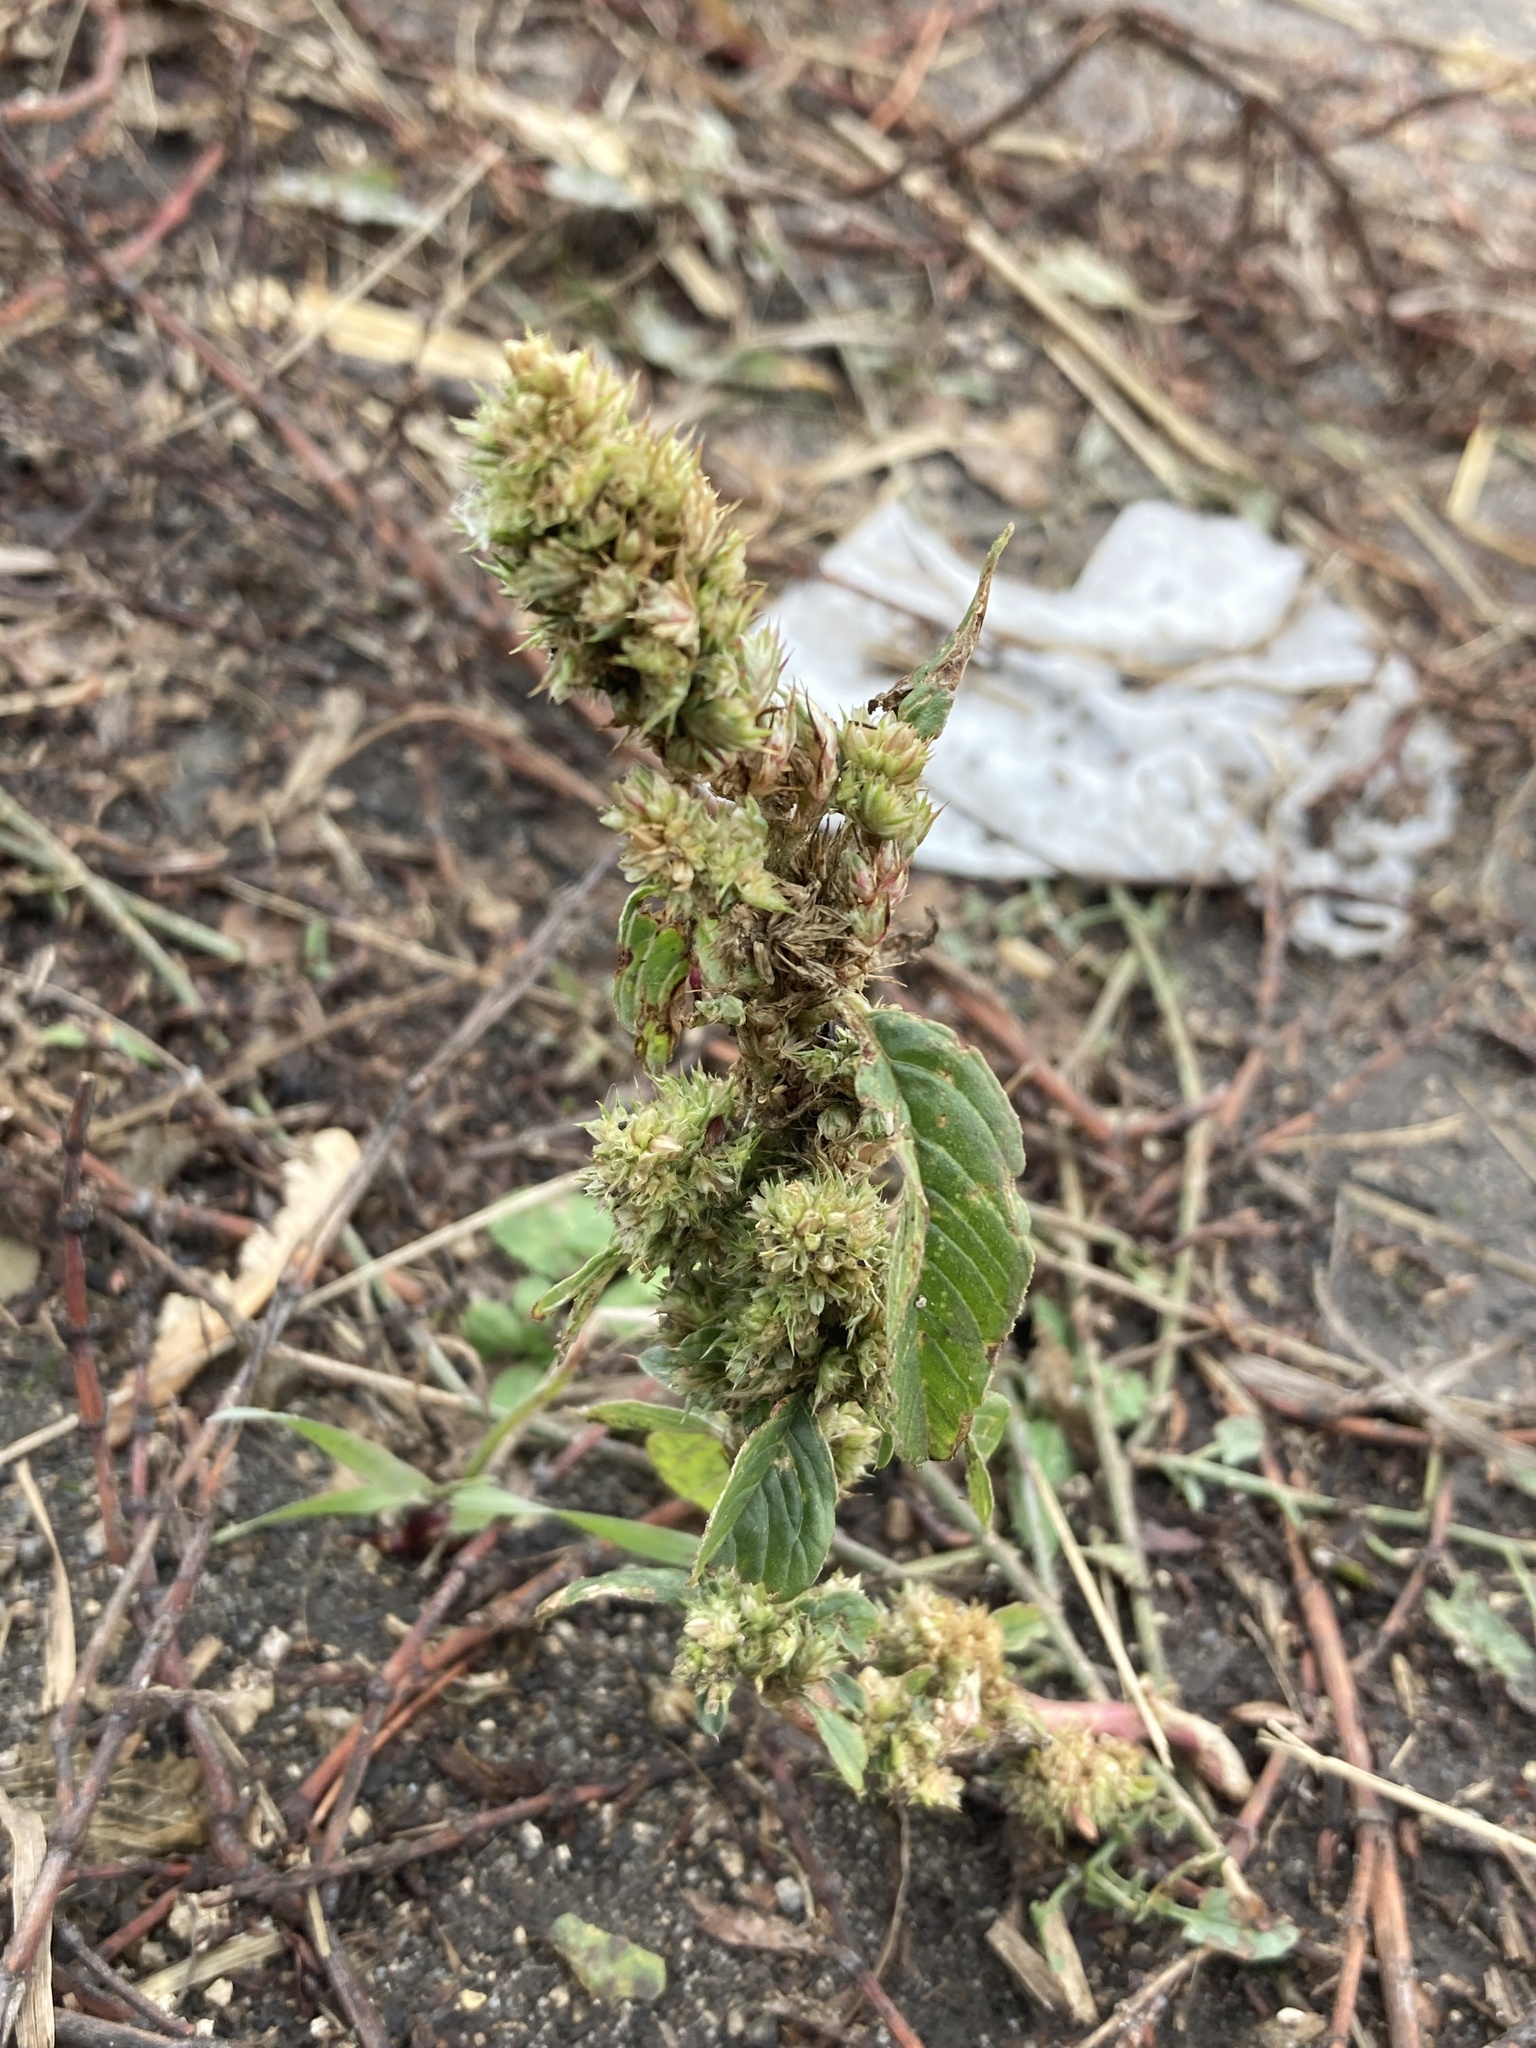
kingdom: Plantae
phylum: Tracheophyta
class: Magnoliopsida
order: Caryophyllales
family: Amaranthaceae
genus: Amaranthus
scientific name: Amaranthus retroflexus
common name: Redroot amaranth
